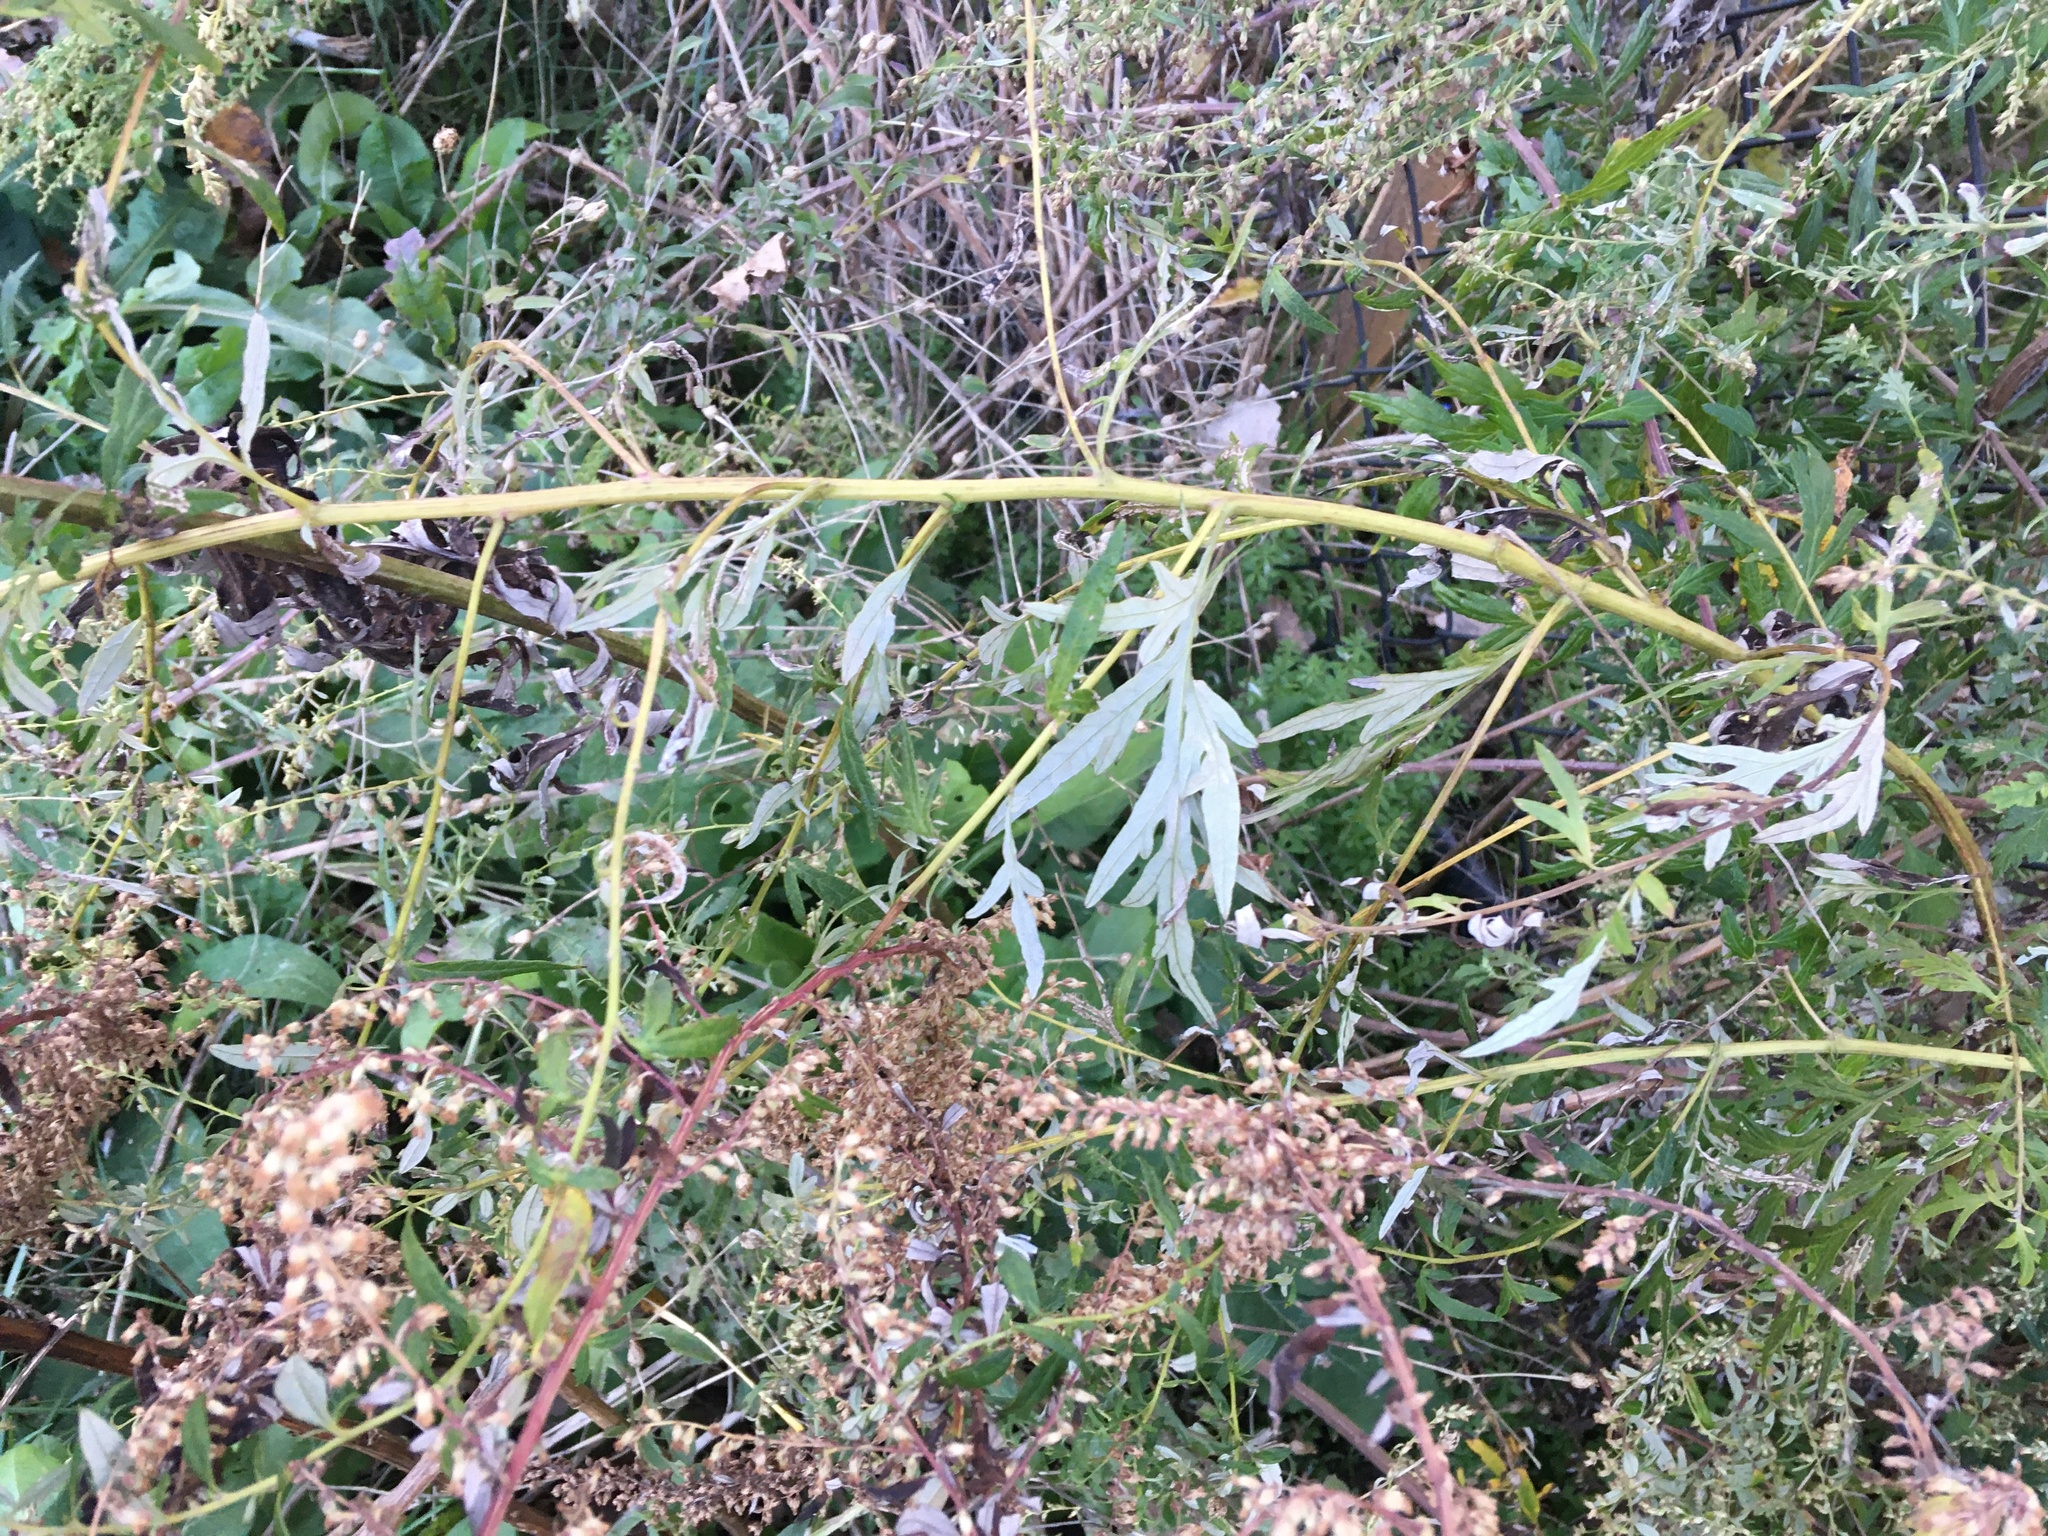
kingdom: Plantae
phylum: Tracheophyta
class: Magnoliopsida
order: Asterales
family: Asteraceae
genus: Artemisia
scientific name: Artemisia vulgaris
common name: Mugwort
